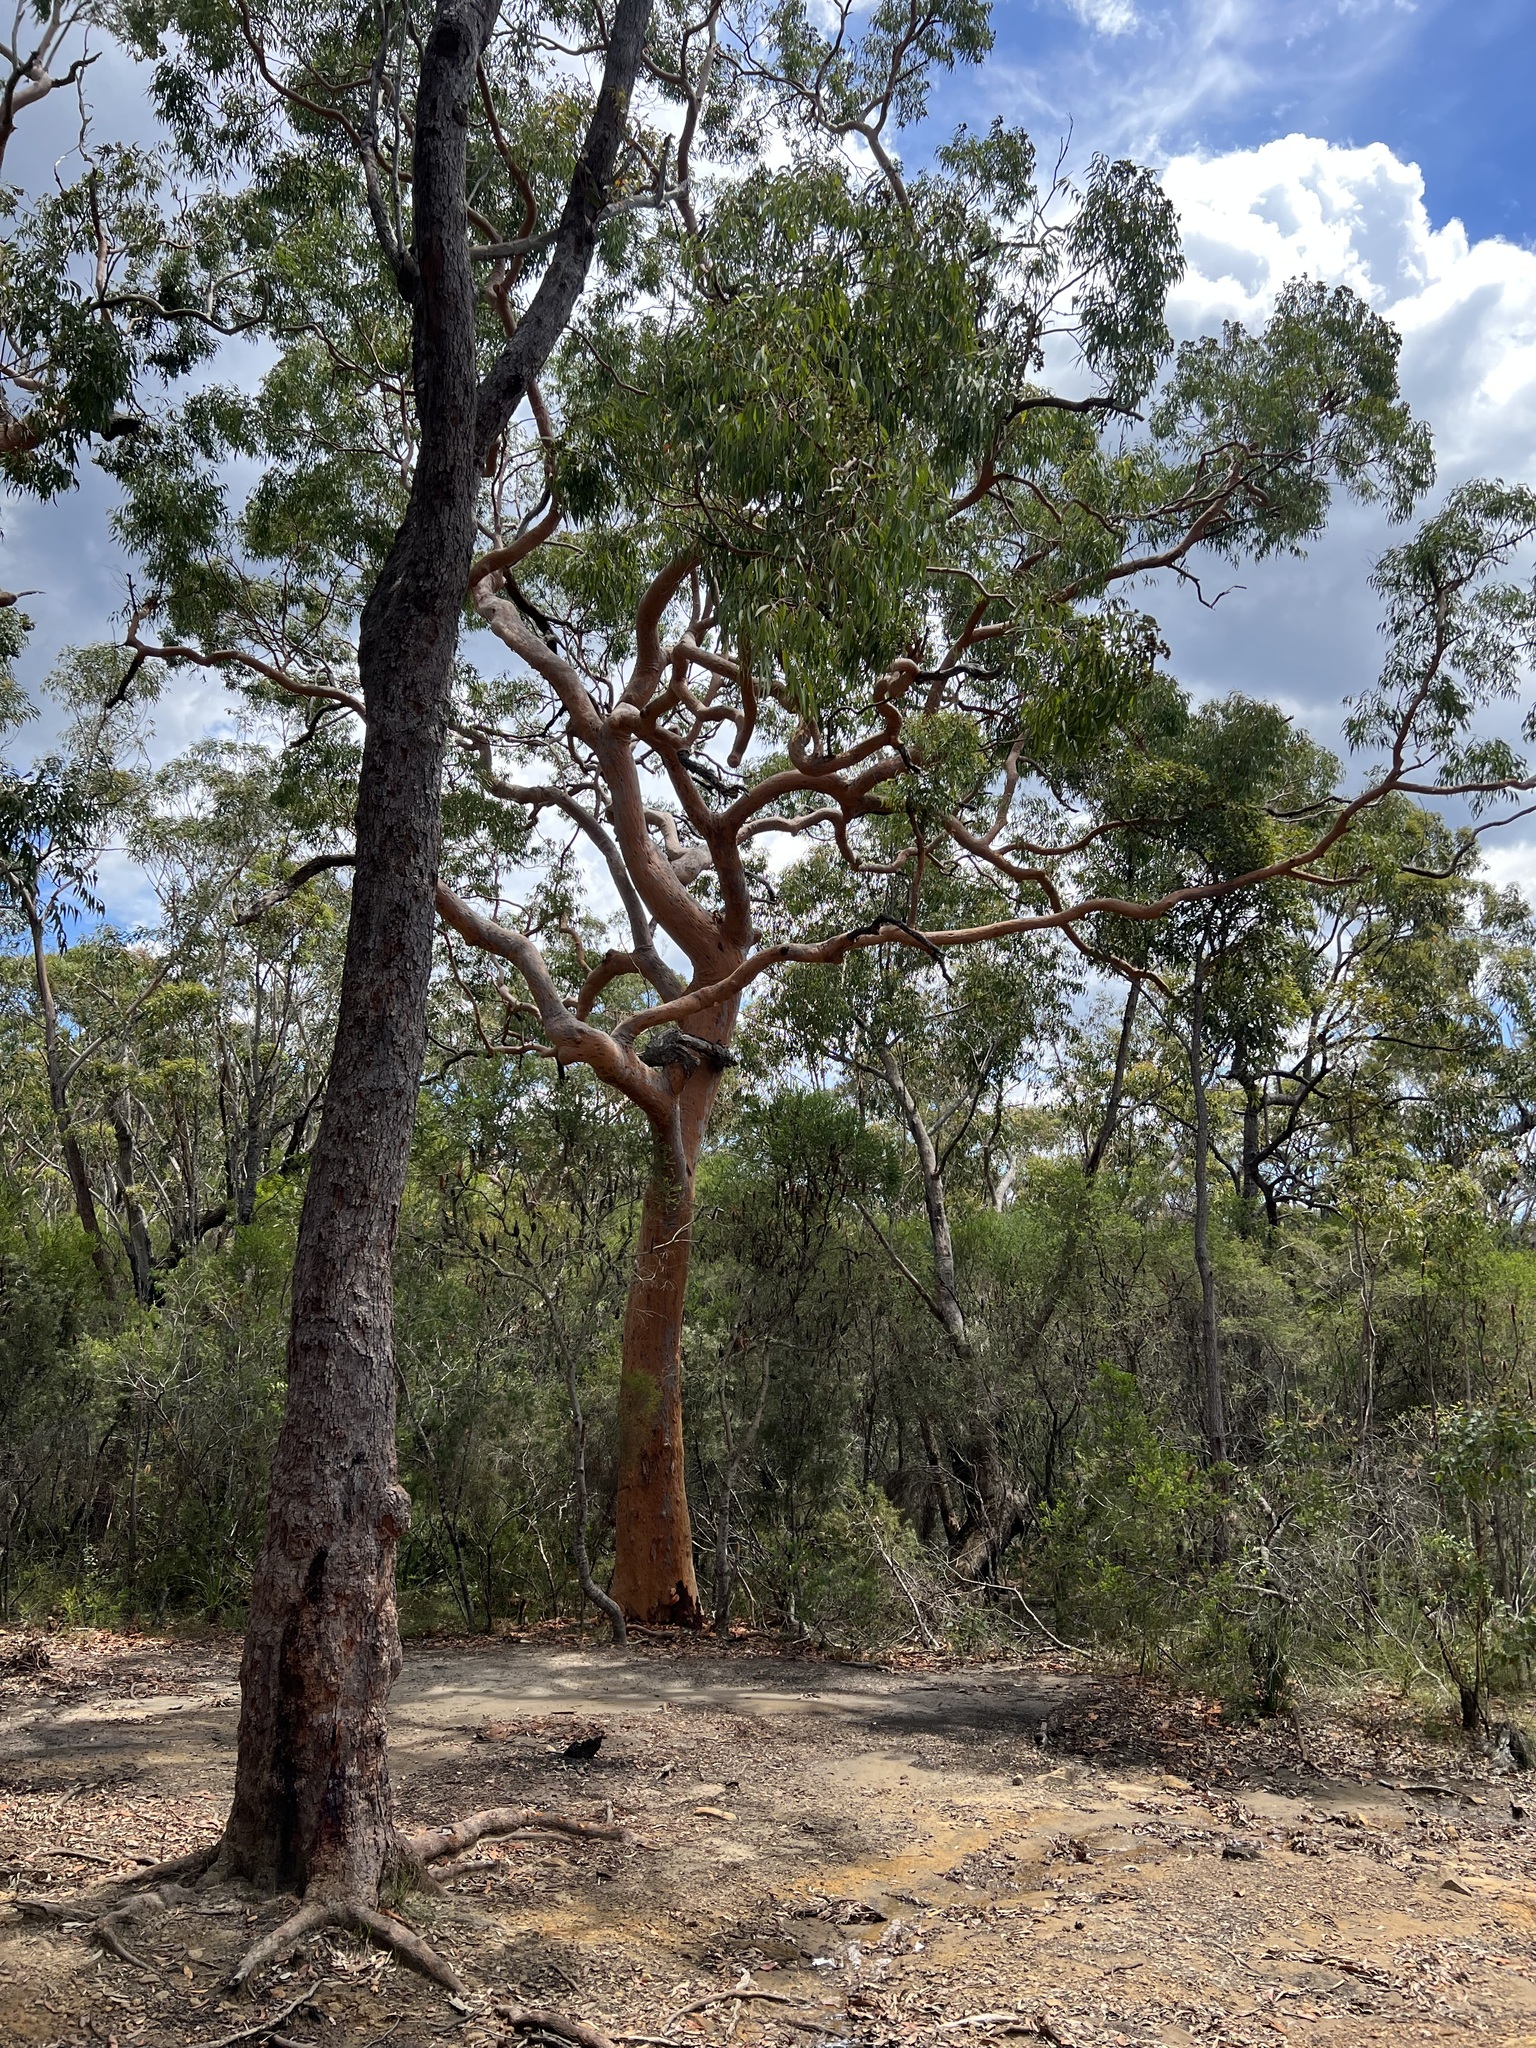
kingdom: Plantae
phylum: Tracheophyta
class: Magnoliopsida
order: Myrtales
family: Myrtaceae
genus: Angophora
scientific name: Angophora costata
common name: Gum myrtle
